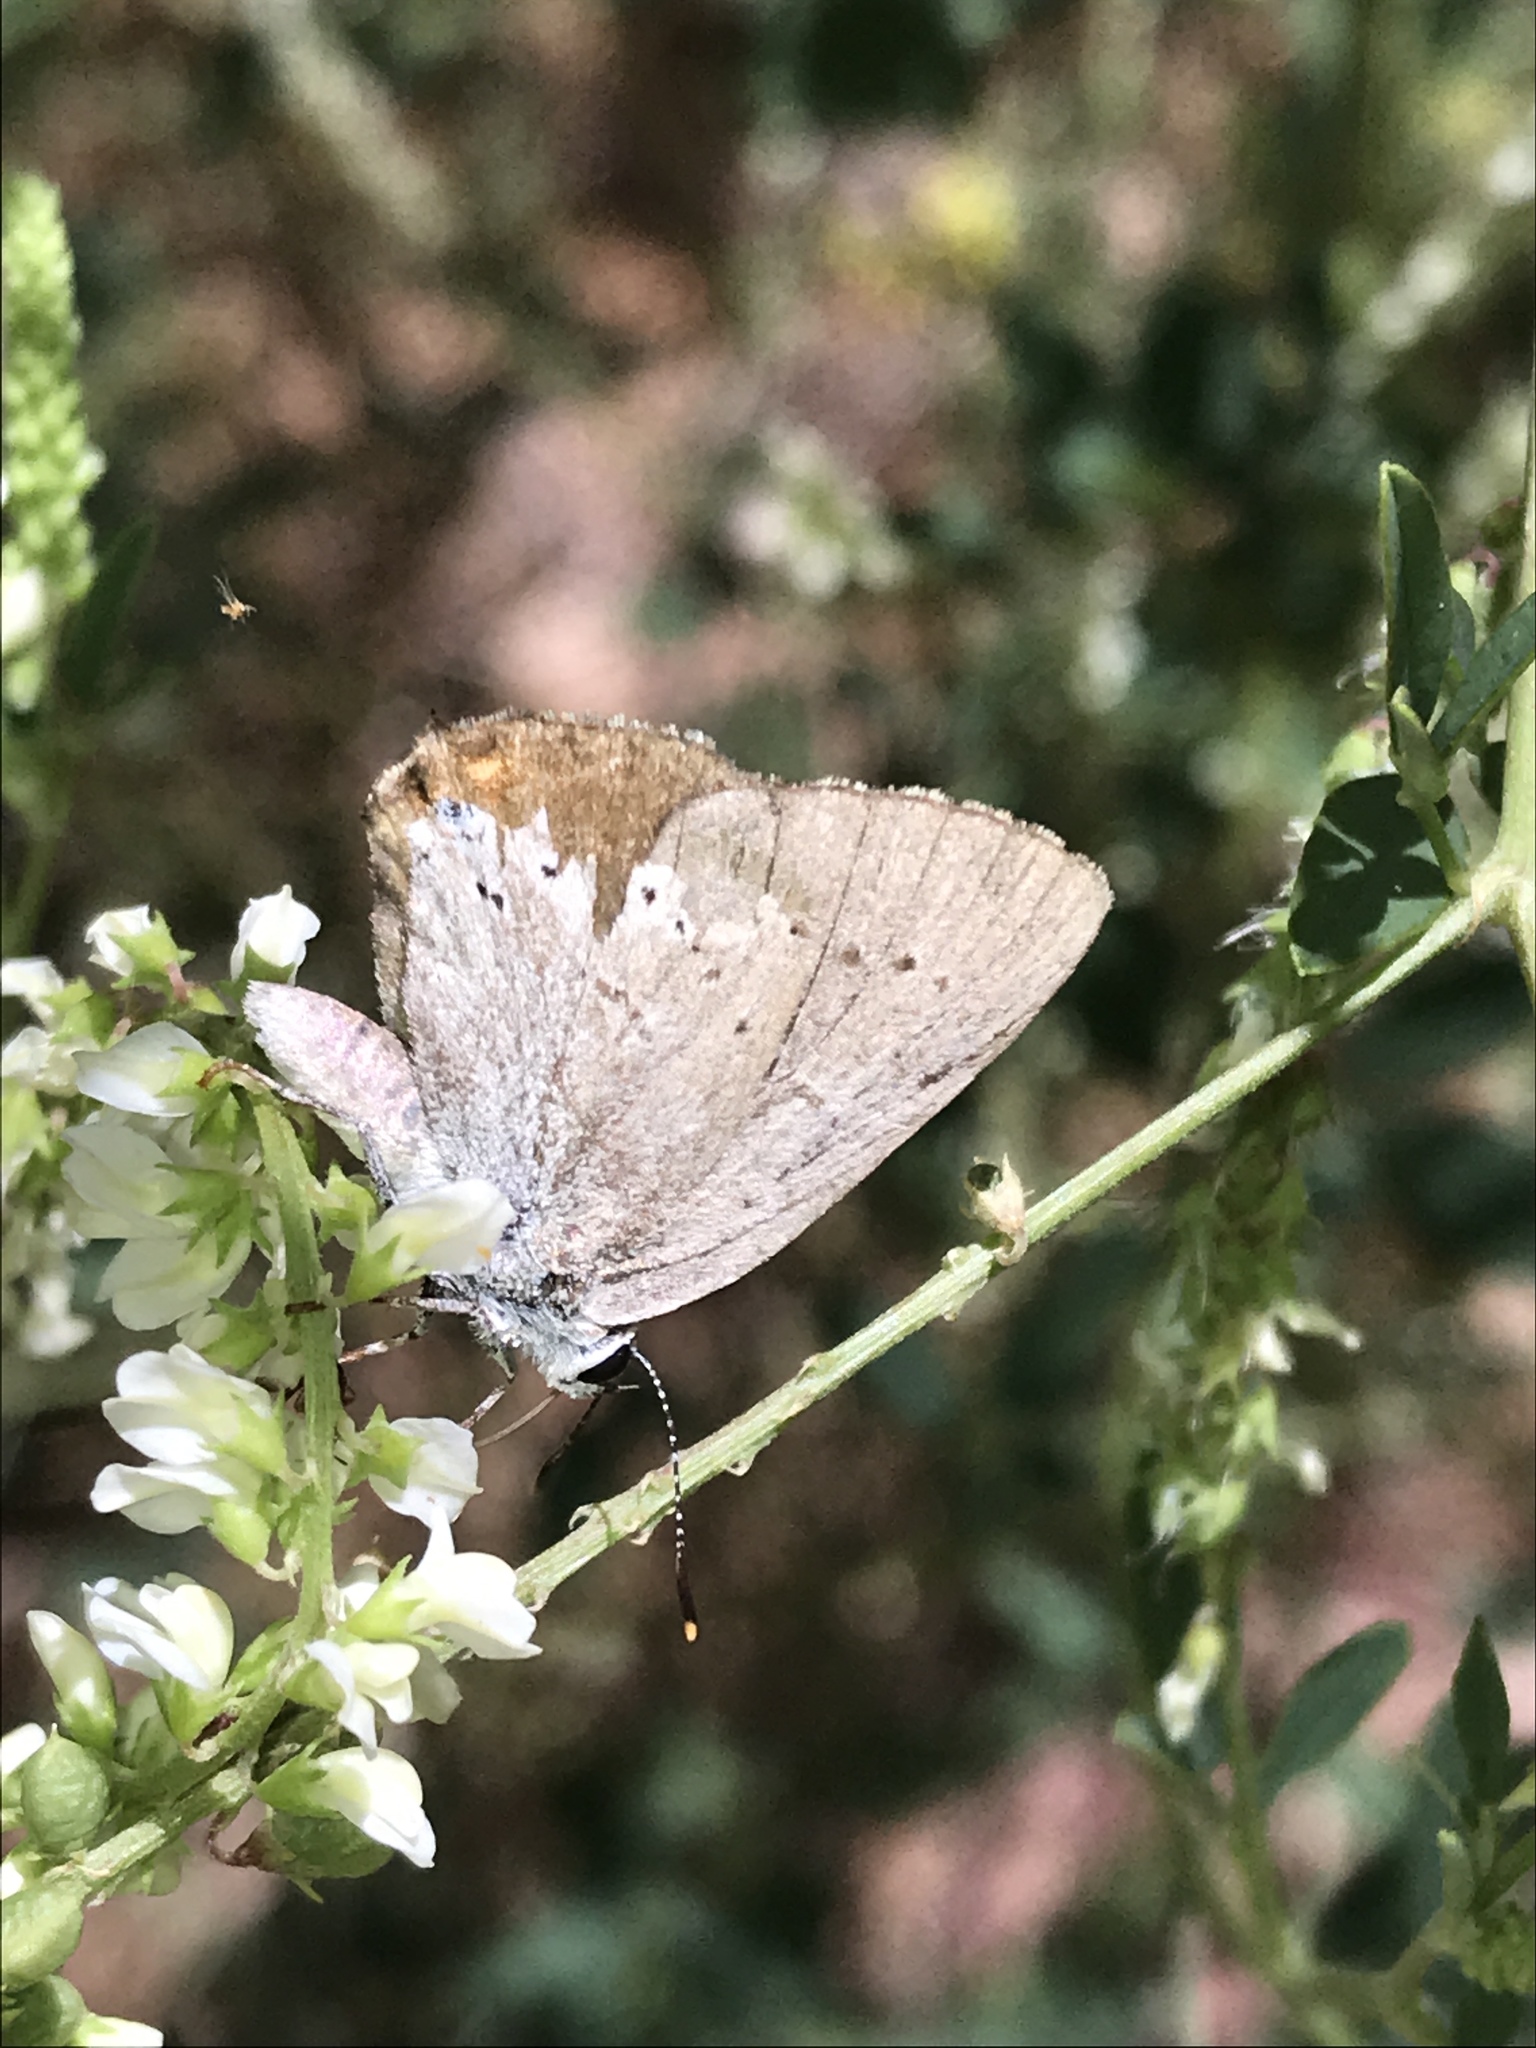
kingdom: Animalia
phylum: Arthropoda
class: Insecta
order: Lepidoptera
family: Lycaenidae
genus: Strymon
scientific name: Strymon sylvinus
